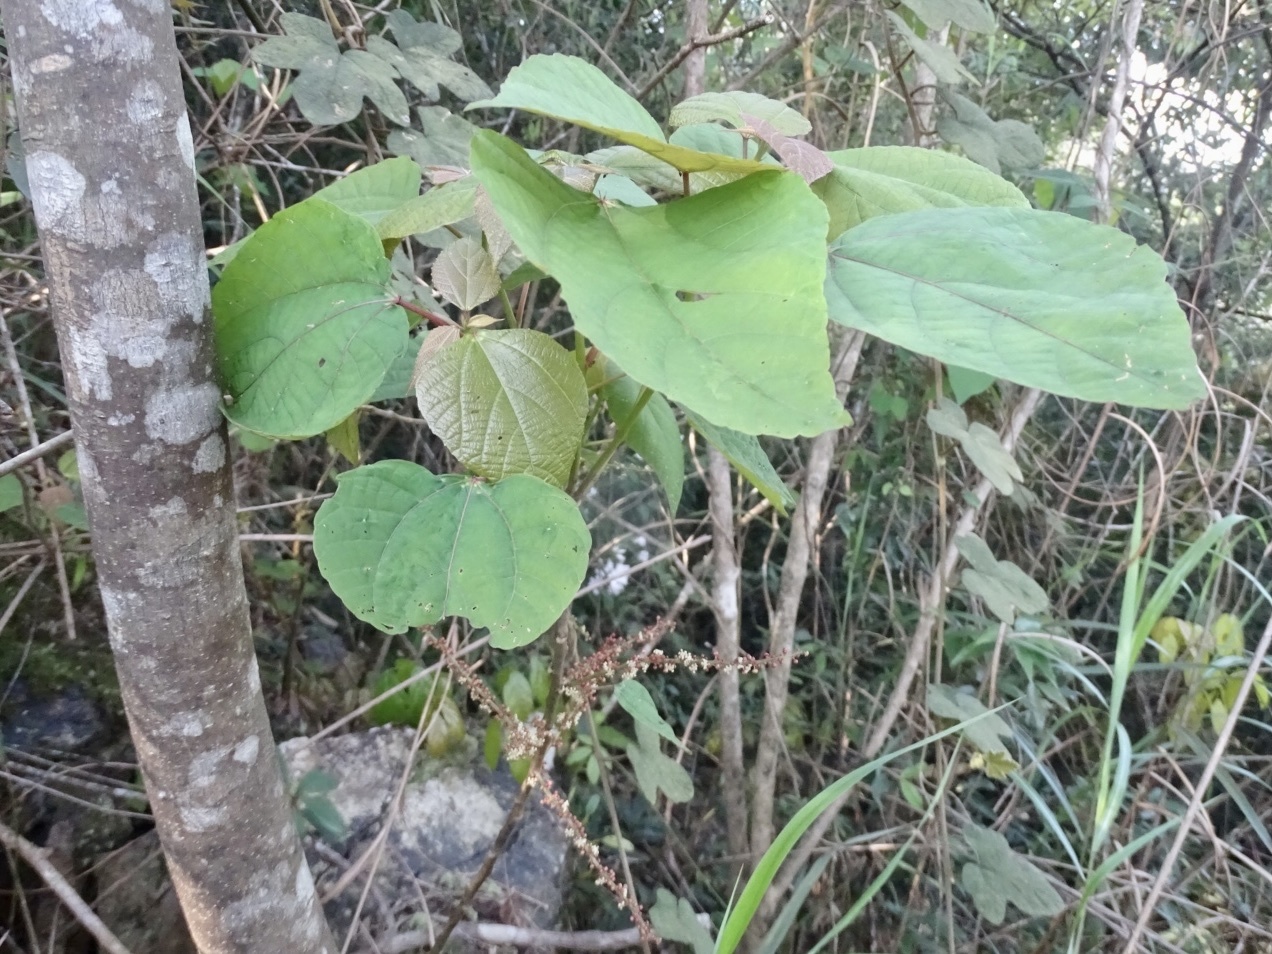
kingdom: Plantae
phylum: Tracheophyta
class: Magnoliopsida
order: Malpighiales
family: Euphorbiaceae
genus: Alchornea
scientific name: Alchornea trewioides
